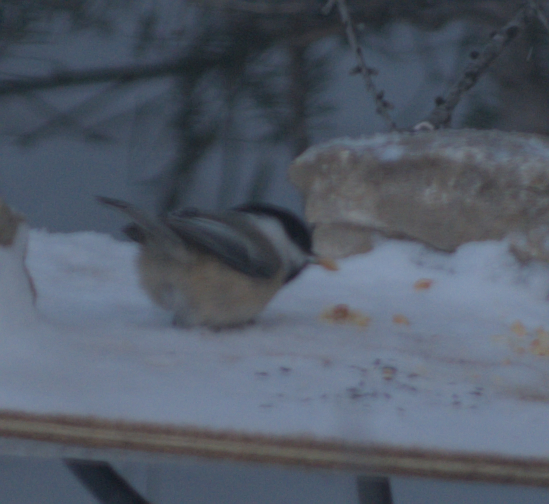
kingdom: Animalia
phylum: Chordata
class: Aves
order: Passeriformes
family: Paridae
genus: Poecile
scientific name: Poecile atricapillus
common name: Black-capped chickadee
